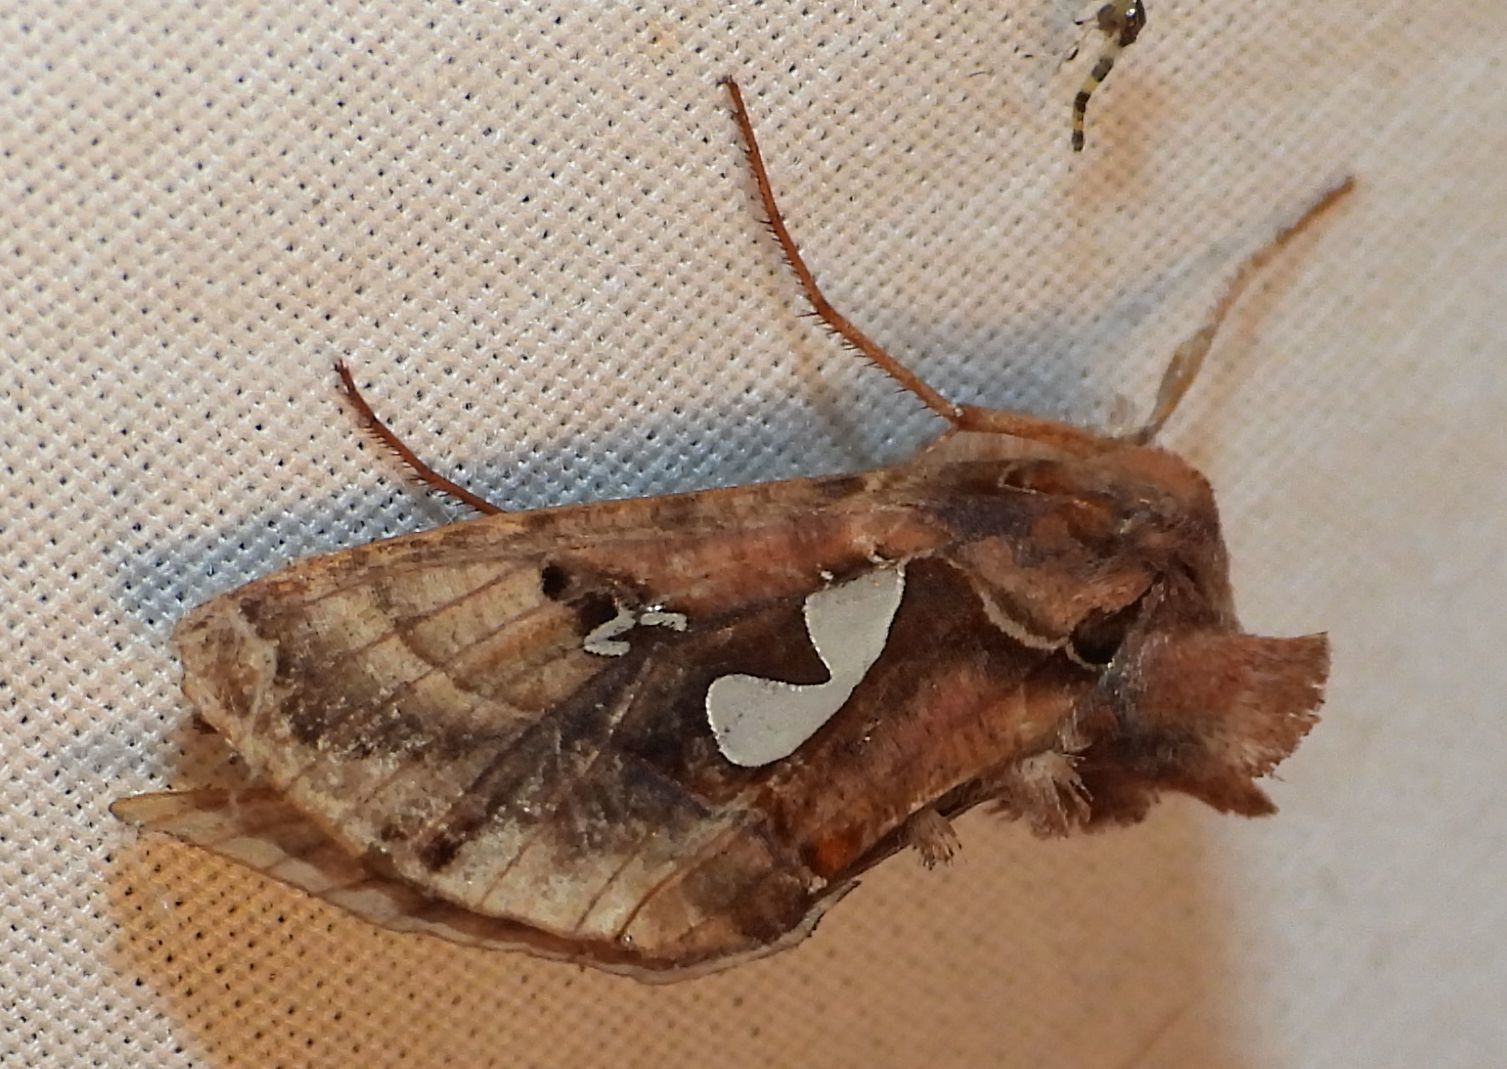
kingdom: Animalia
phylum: Arthropoda
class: Insecta
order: Lepidoptera
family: Noctuidae
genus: Megalographa
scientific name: Megalographa biloba
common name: Cutworm
